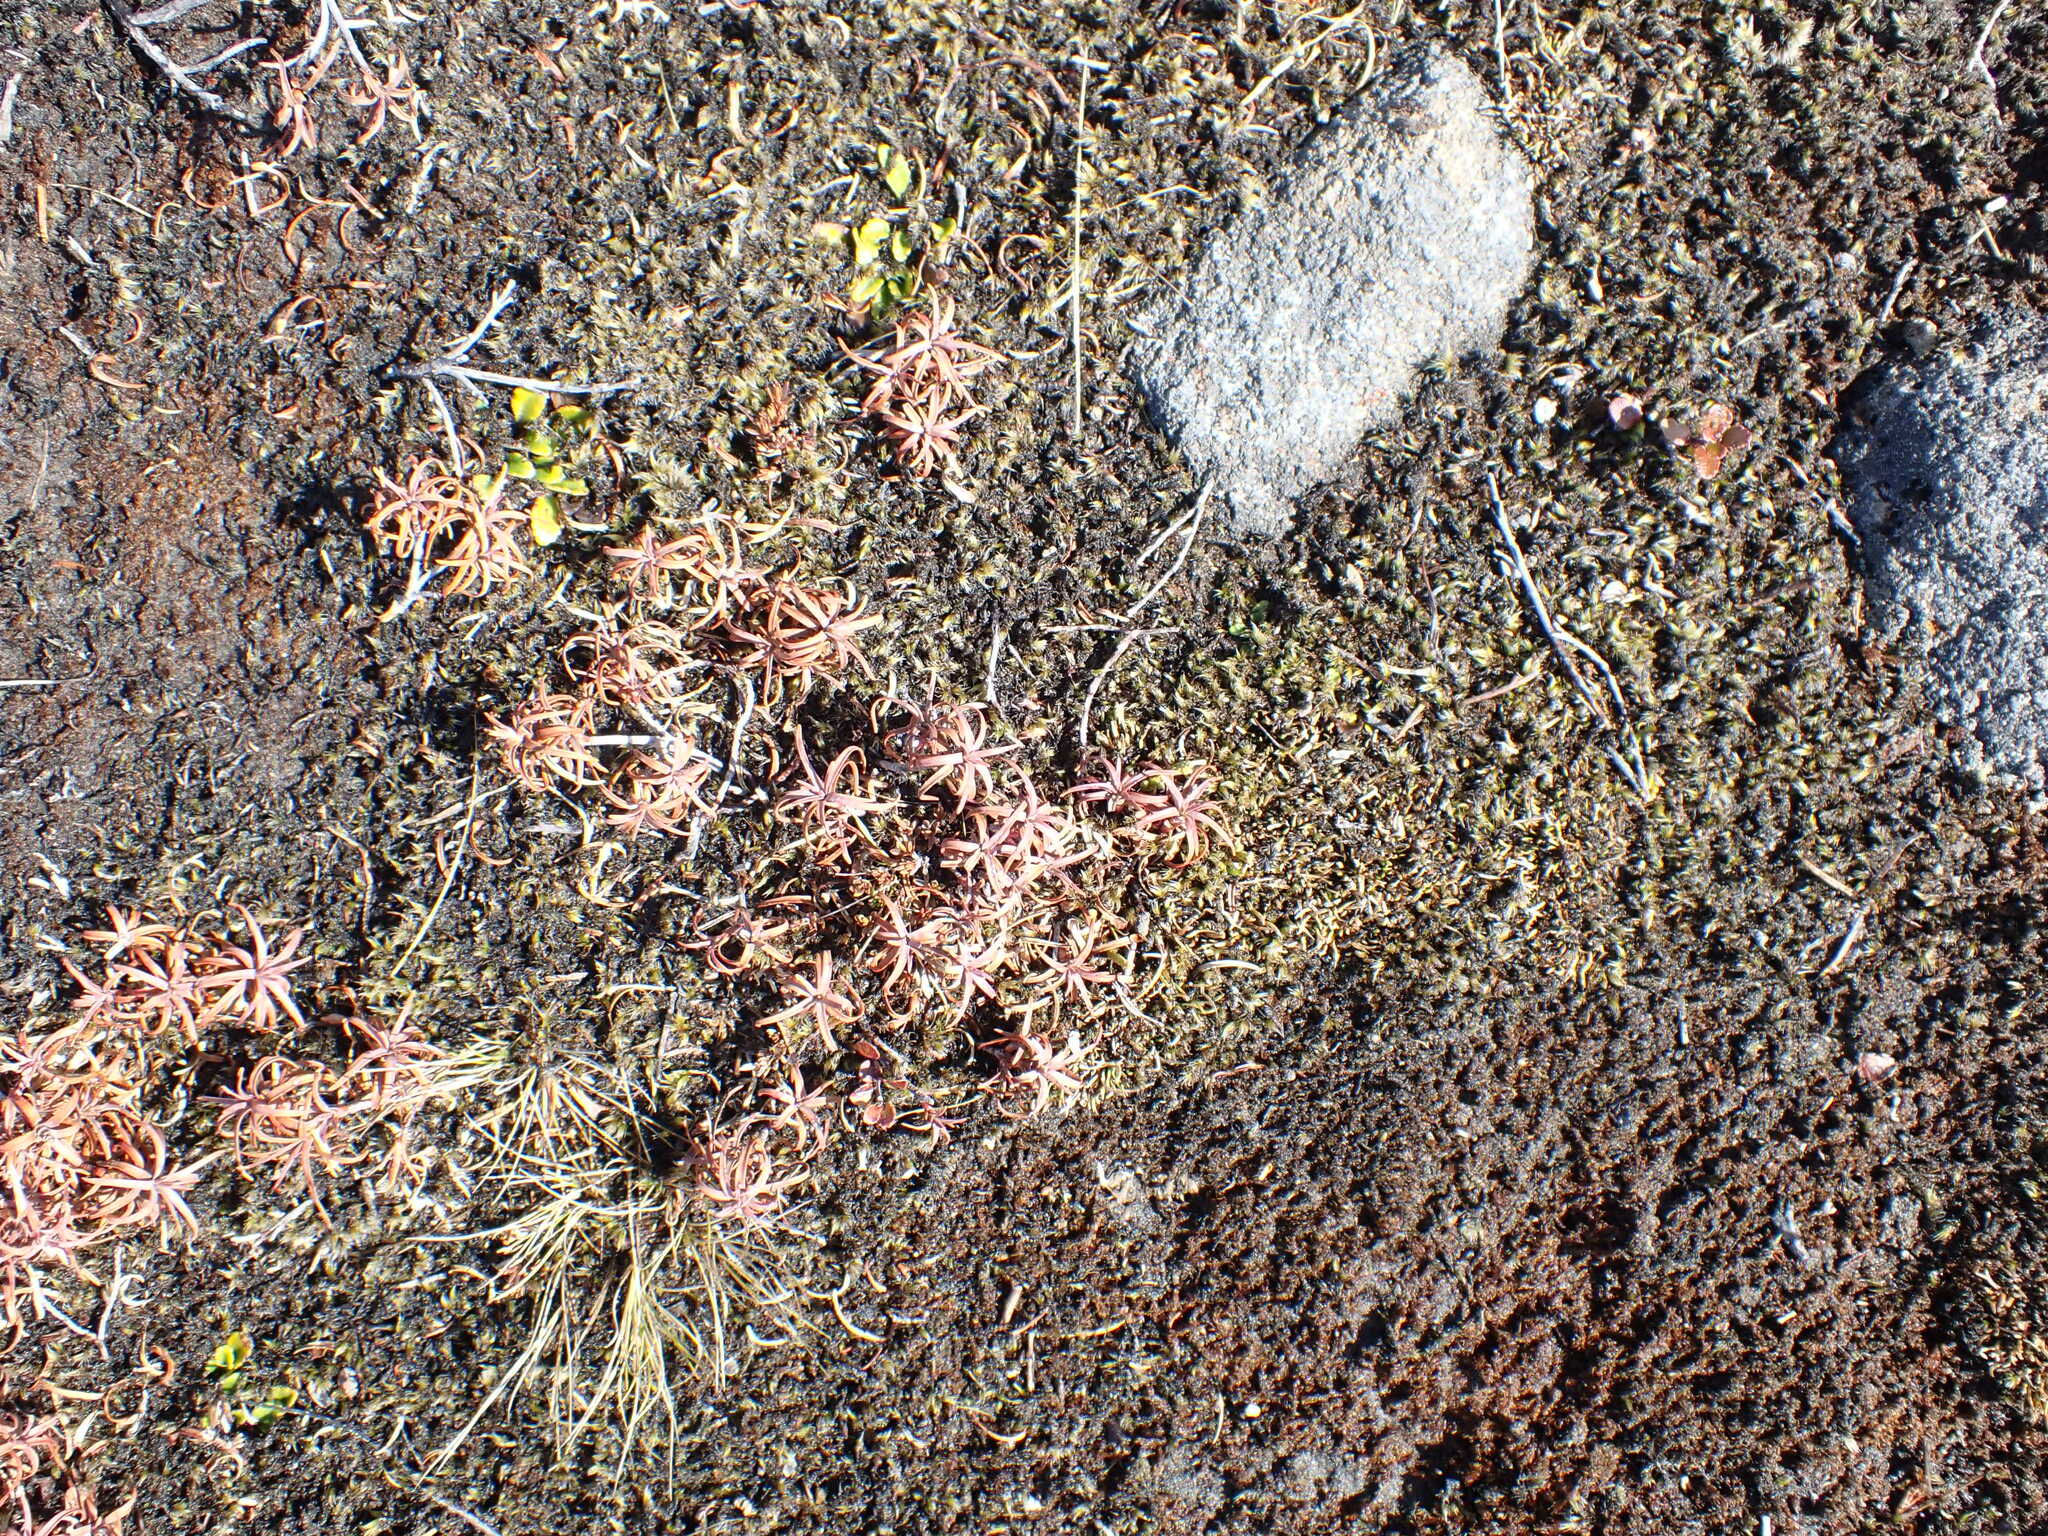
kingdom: Plantae
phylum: Tracheophyta
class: Magnoliopsida
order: Ericales
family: Ericaceae
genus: Dracophyllum
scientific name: Dracophyllum recurvum
